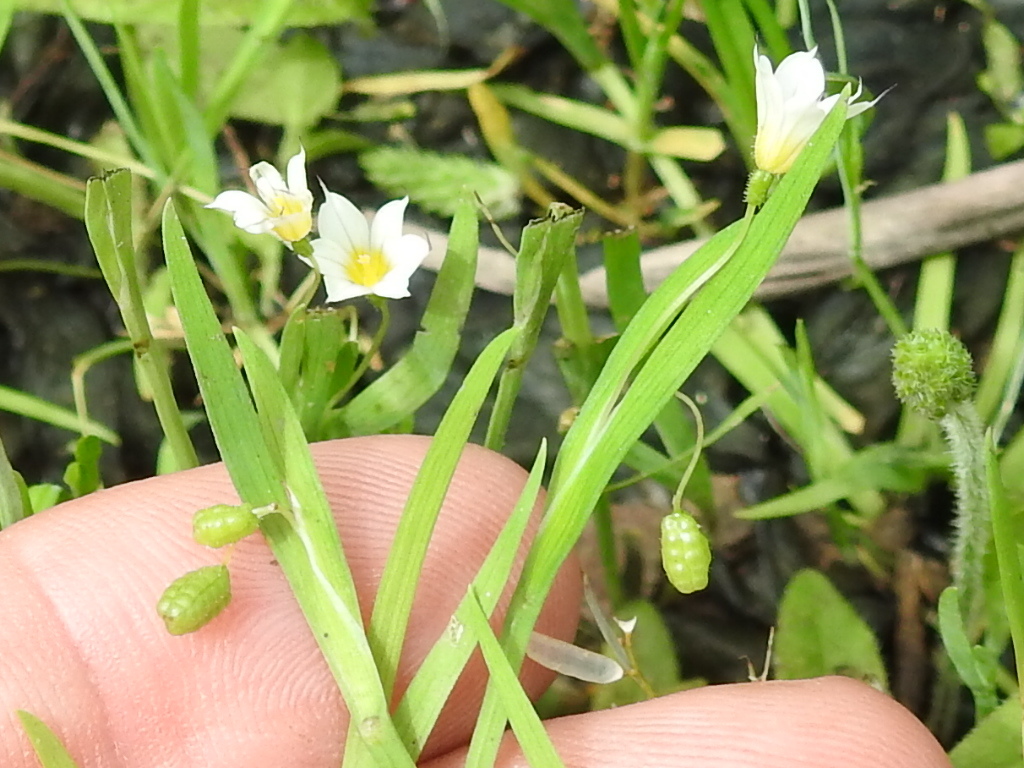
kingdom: Plantae
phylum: Tracheophyta
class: Liliopsida
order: Asparagales
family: Iridaceae
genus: Sisyrinchium
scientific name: Sisyrinchium minus
